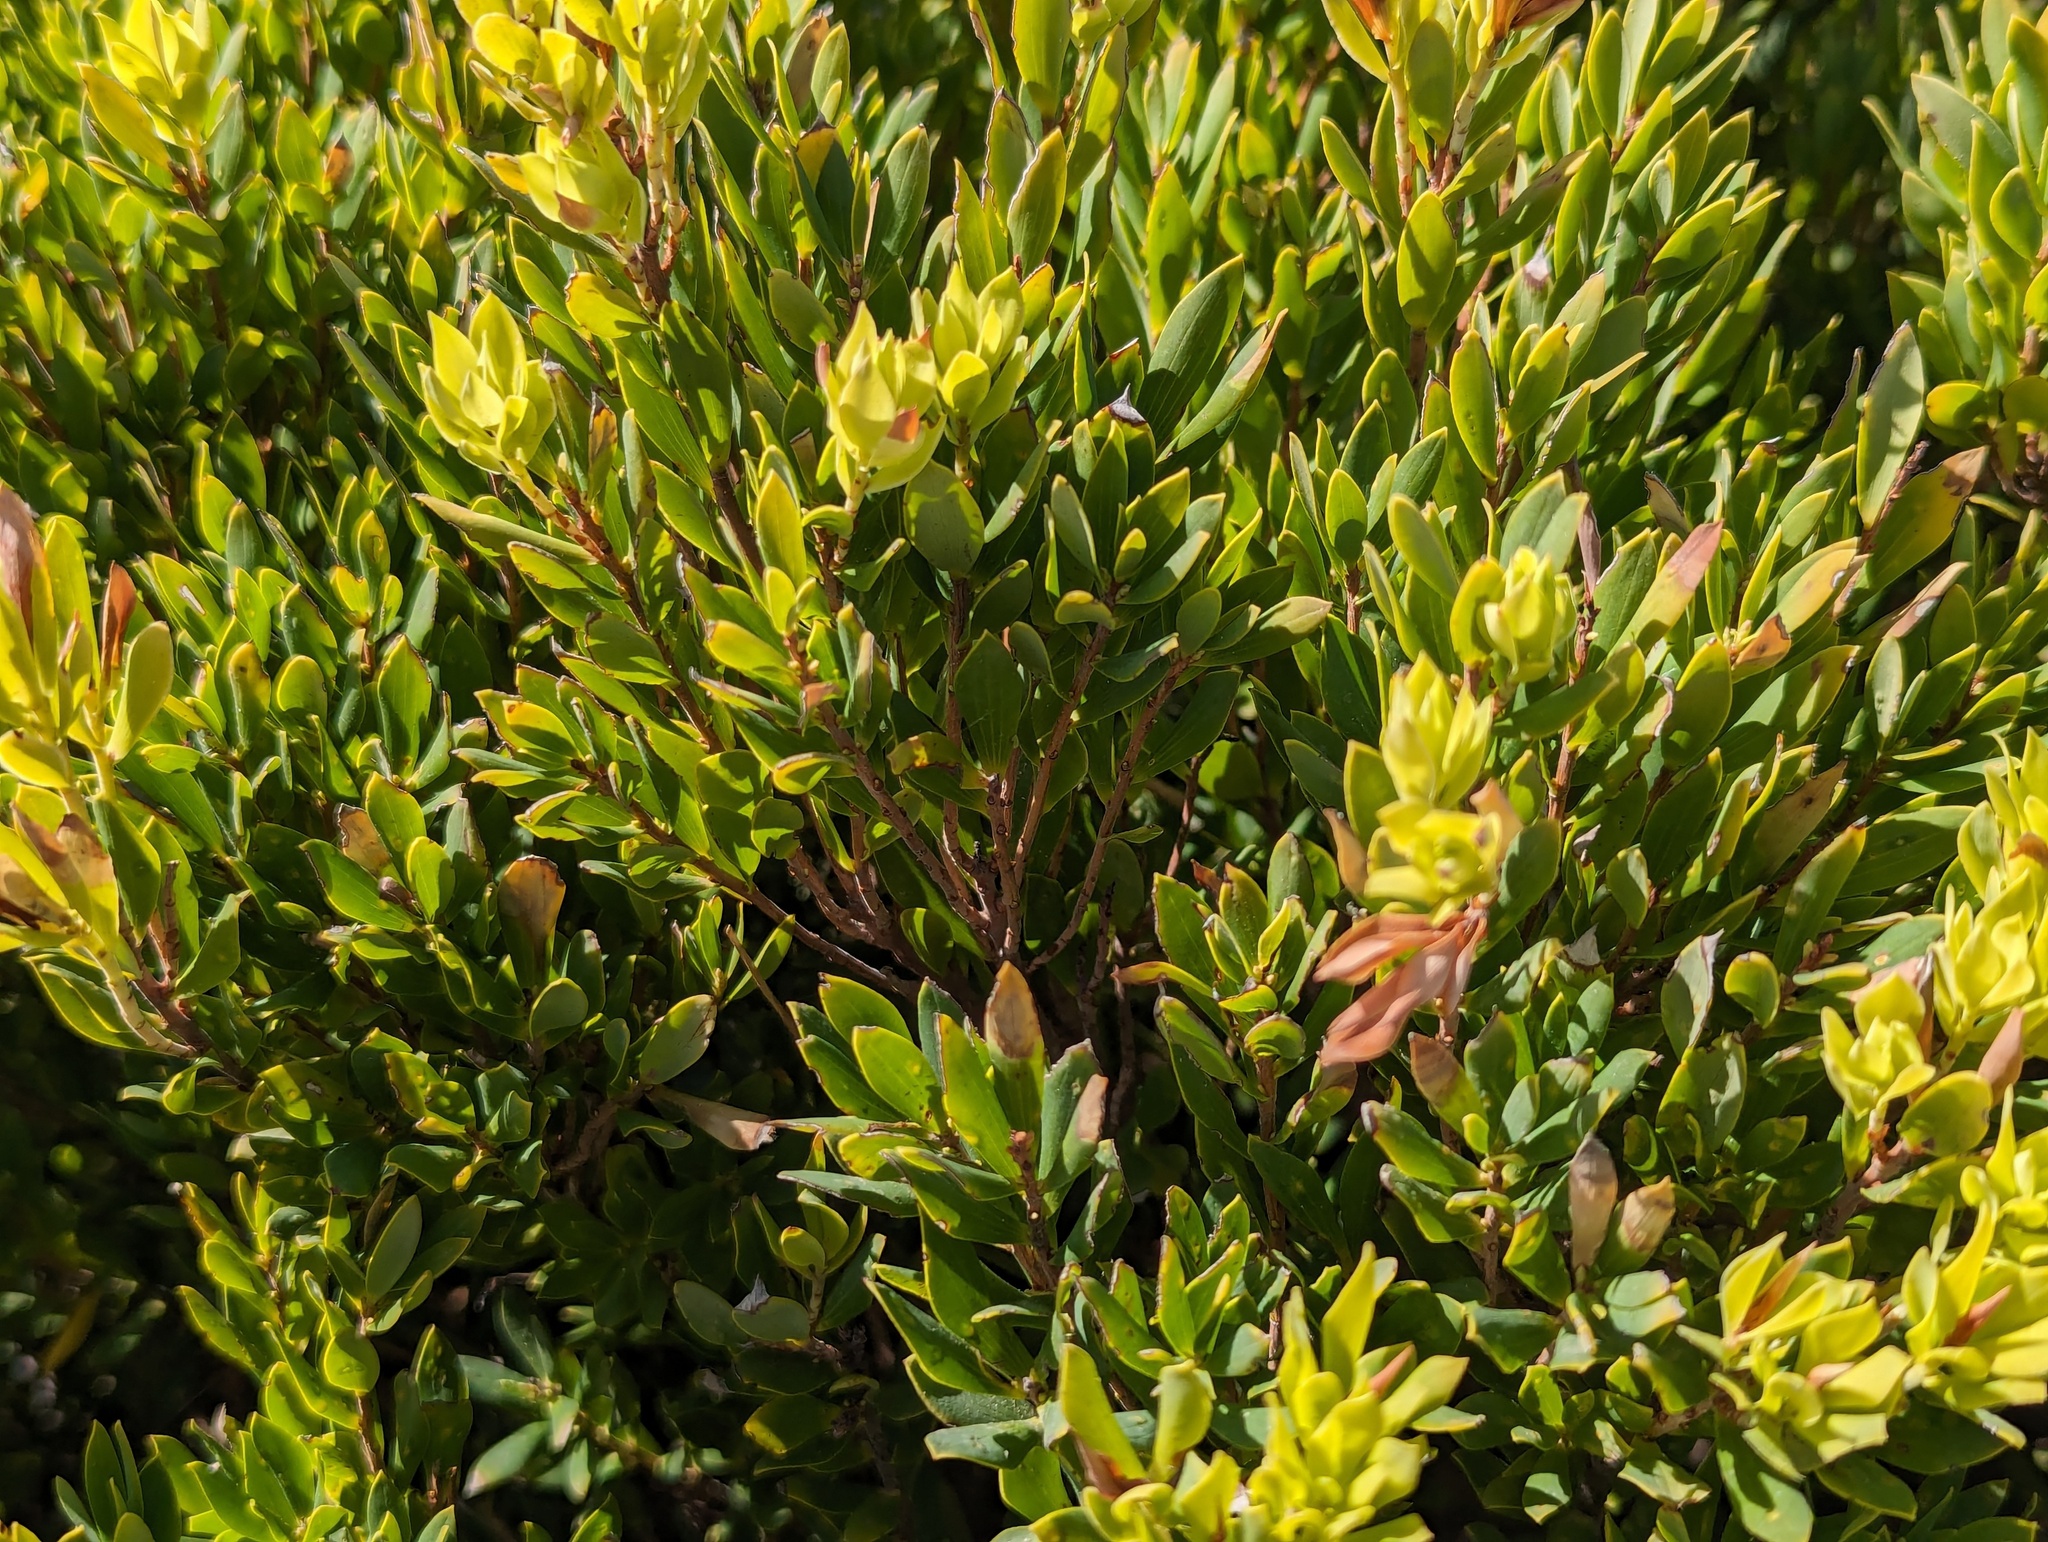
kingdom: Plantae
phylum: Tracheophyta
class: Magnoliopsida
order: Ericales
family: Ericaceae
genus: Leptecophylla
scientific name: Leptecophylla parvifolia
